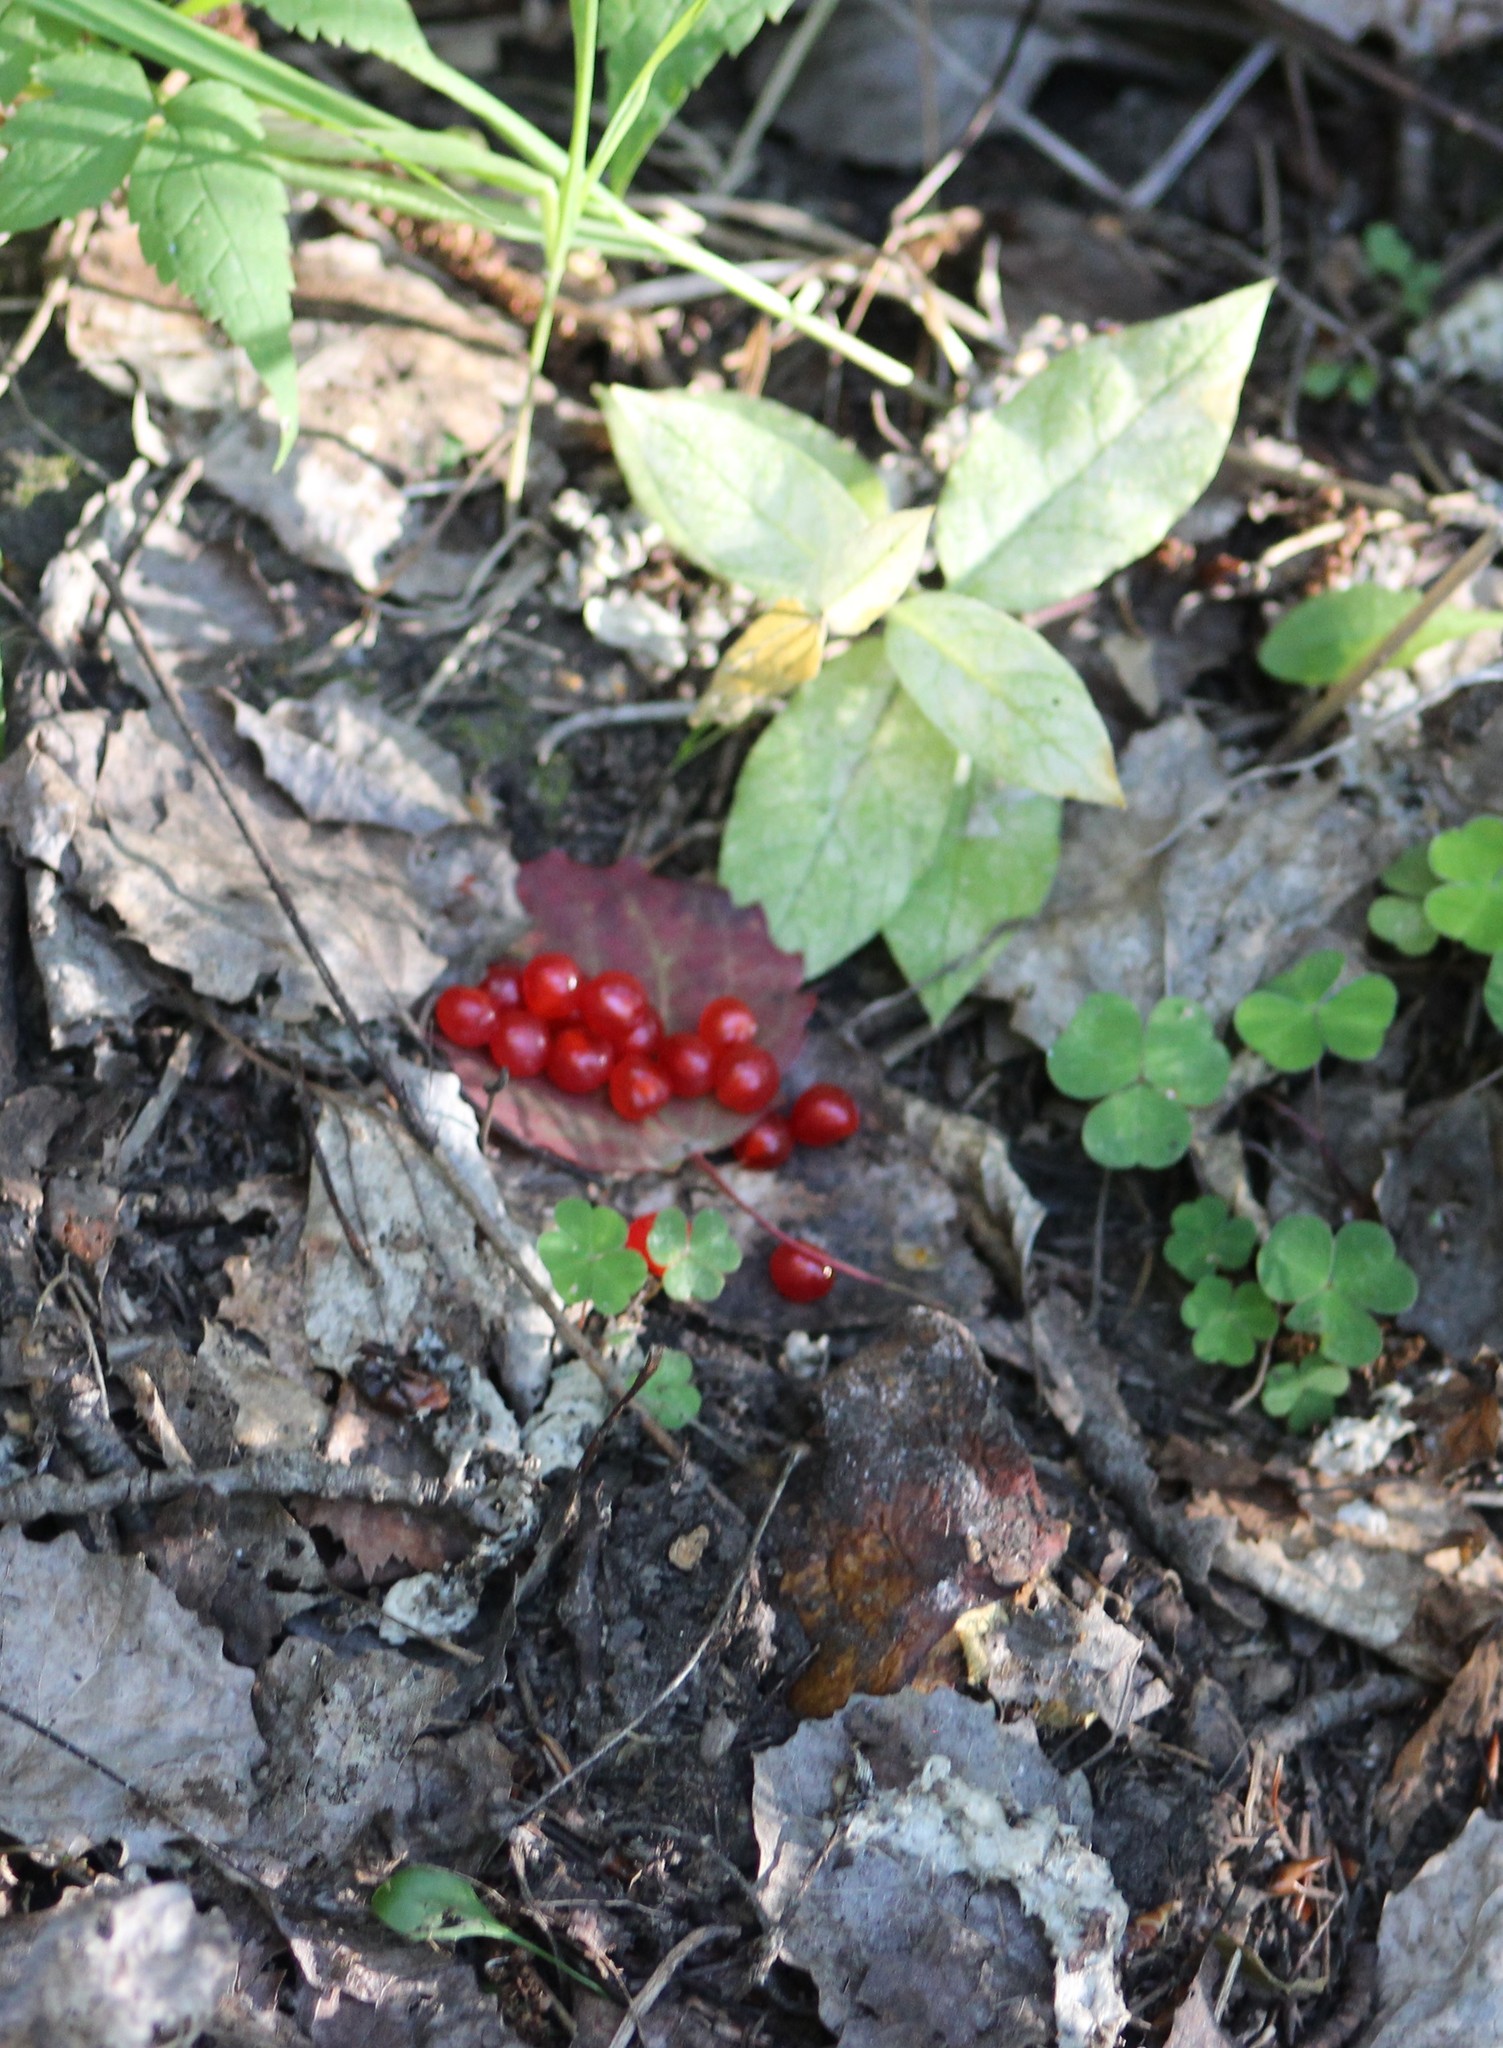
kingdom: Plantae
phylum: Tracheophyta
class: Magnoliopsida
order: Rosales
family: Rosaceae
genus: Rubus
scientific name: Rubus saxatilis
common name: Stone bramble
